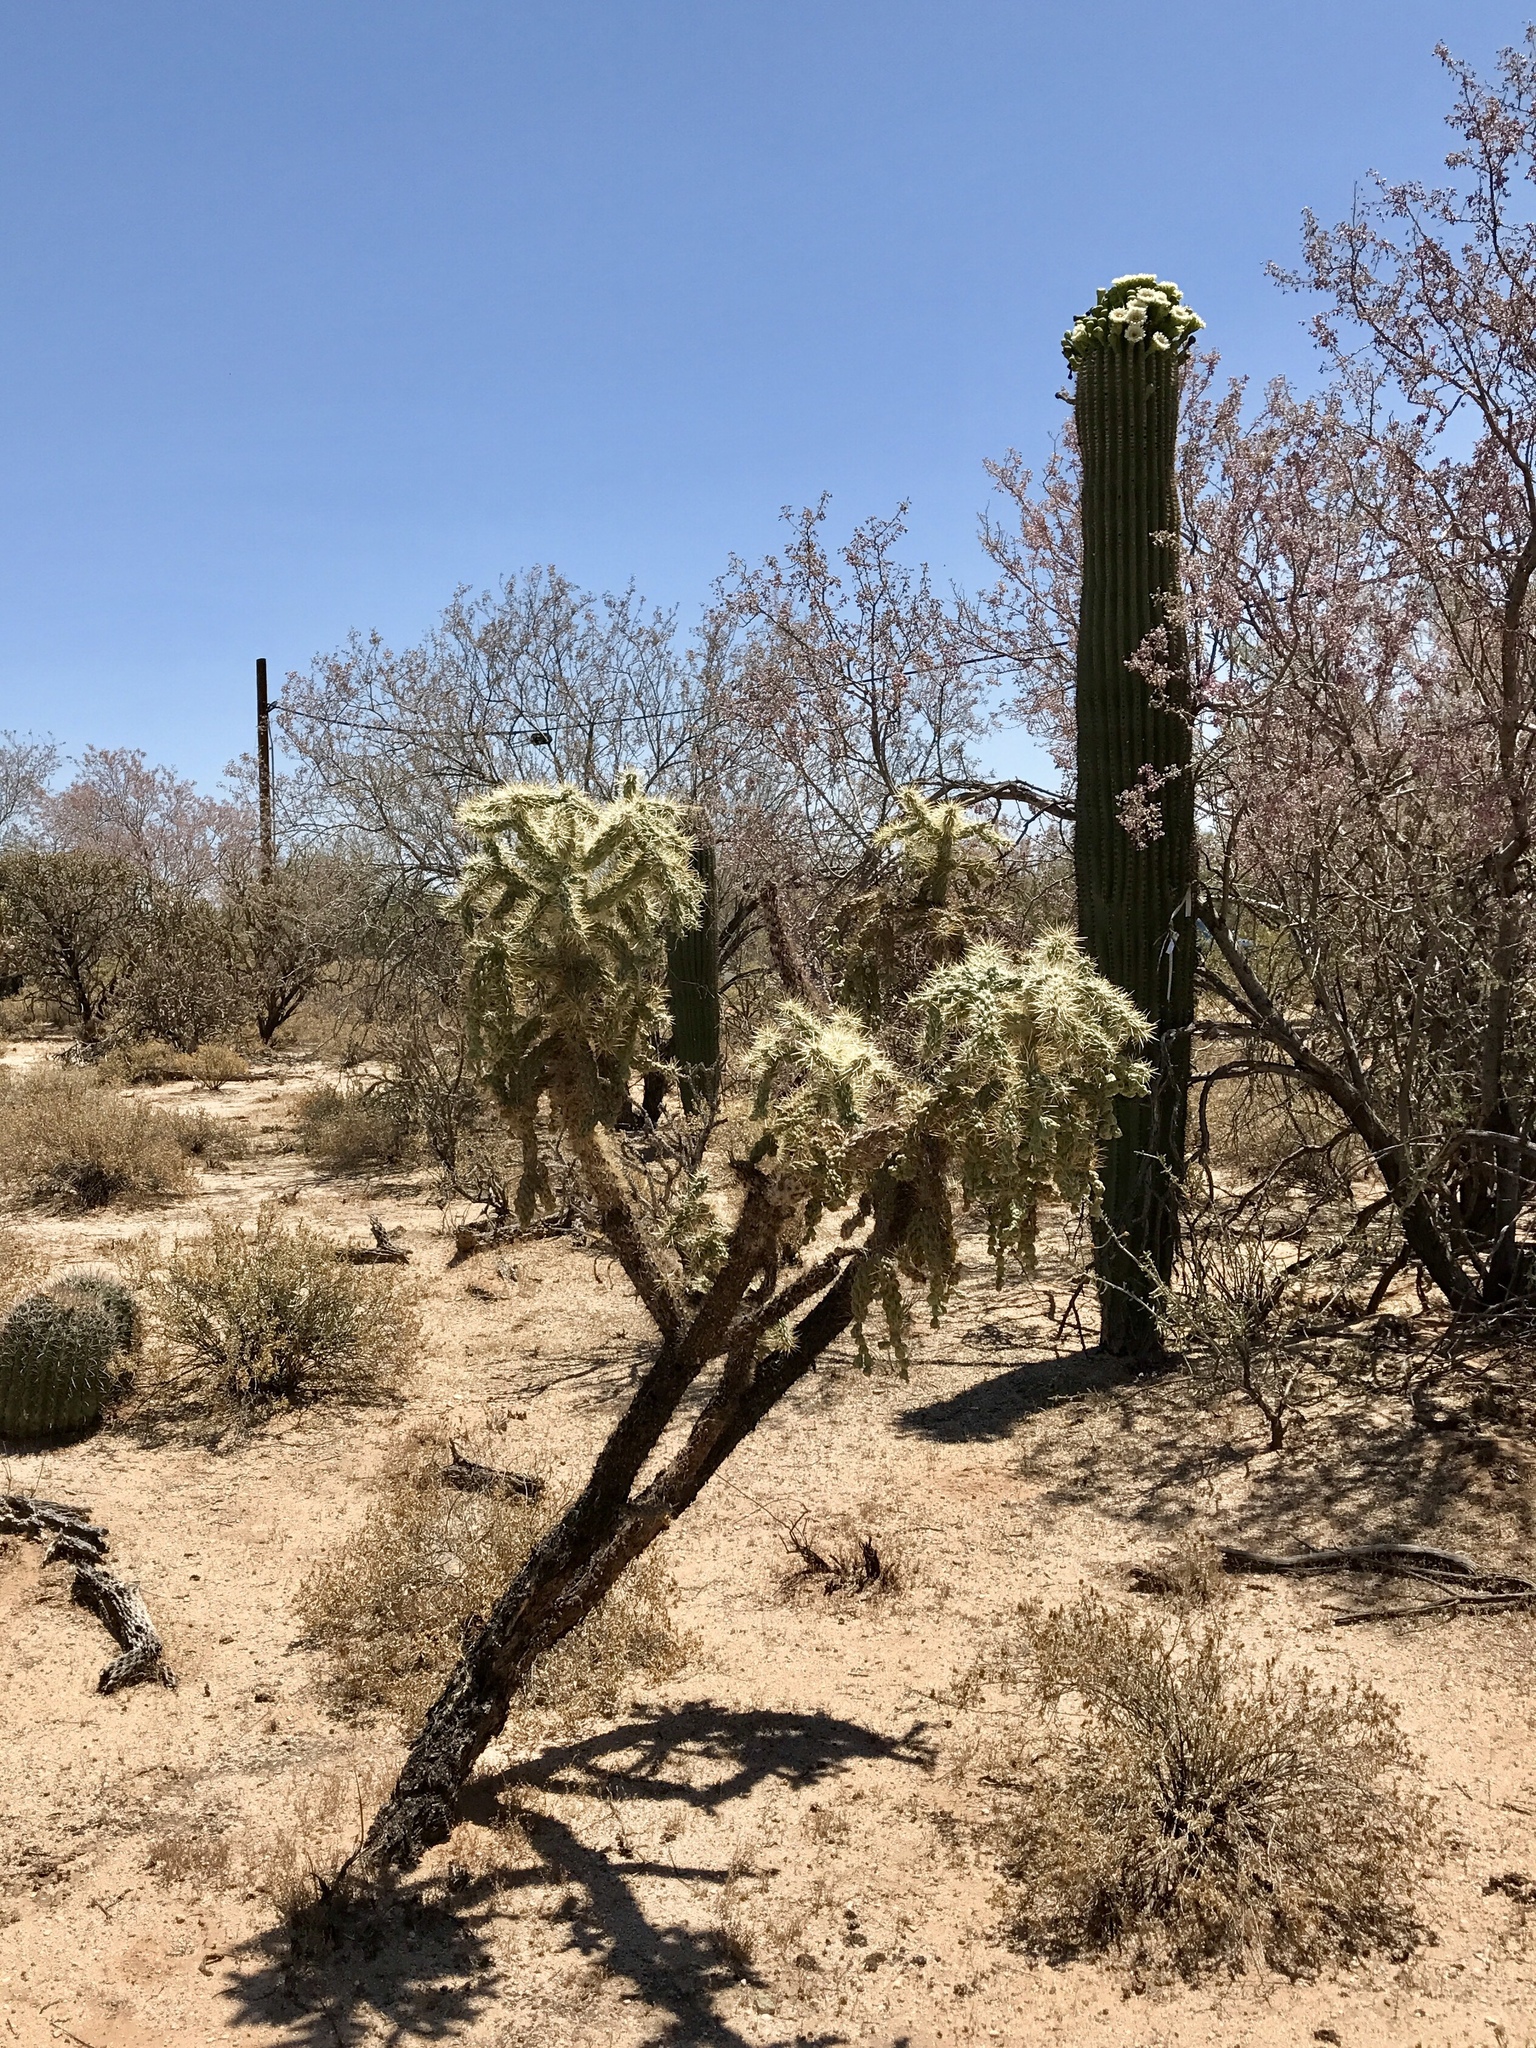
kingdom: Plantae
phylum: Tracheophyta
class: Magnoliopsida
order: Caryophyllales
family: Cactaceae
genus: Cylindropuntia
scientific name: Cylindropuntia fulgida
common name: Jumping cholla
